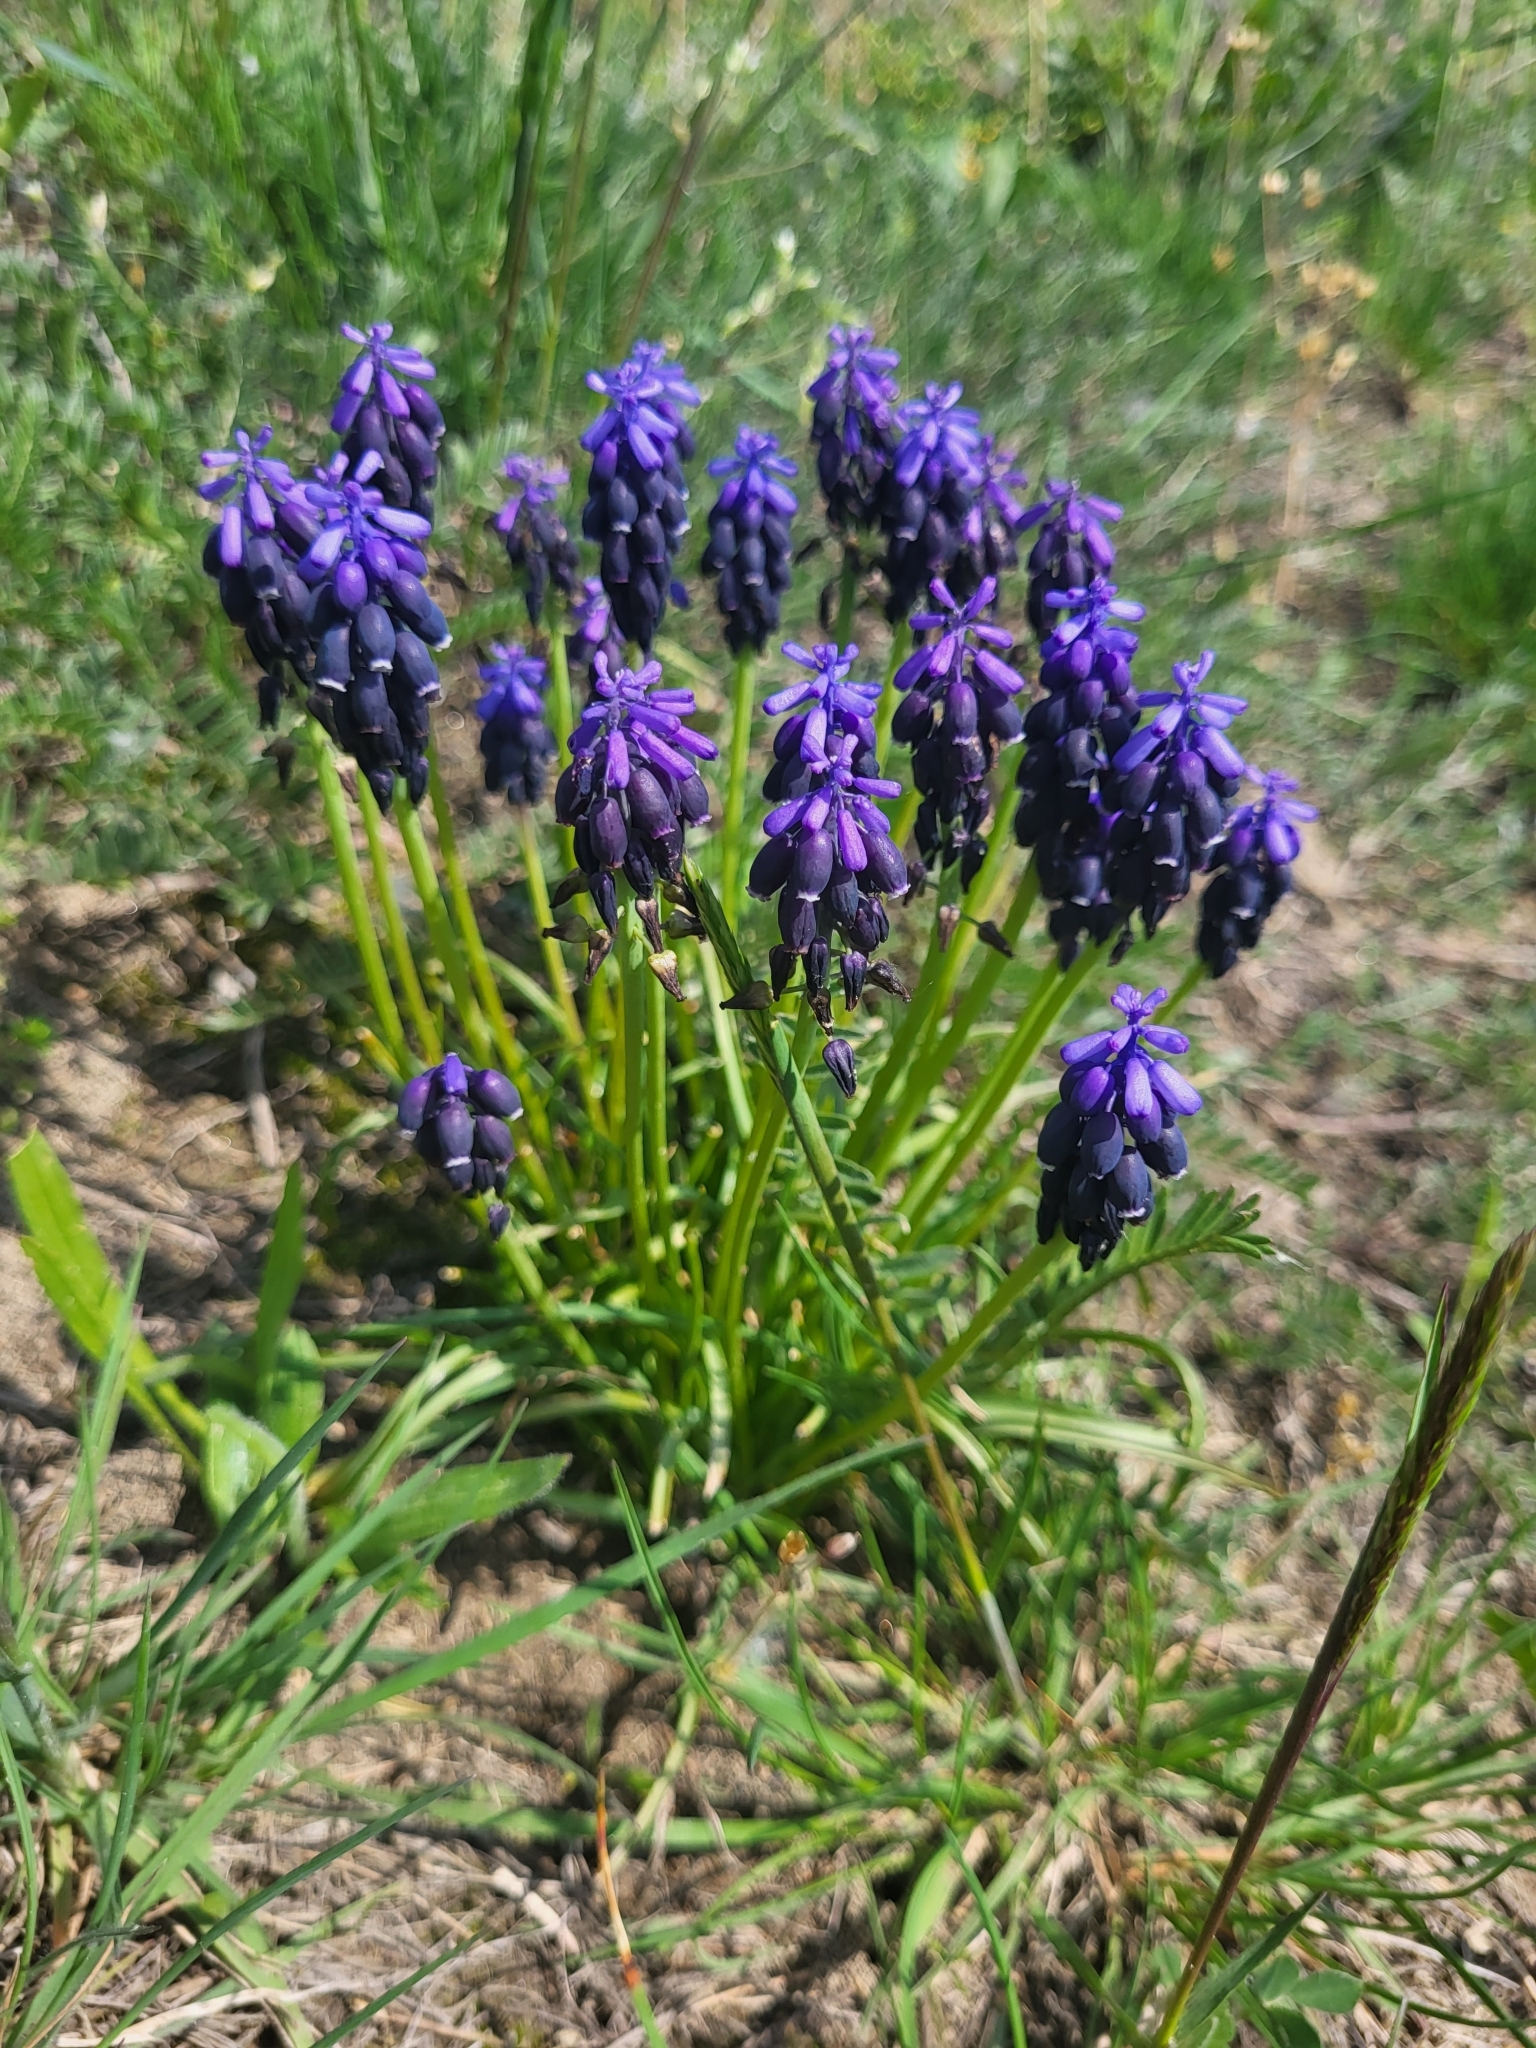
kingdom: Plantae
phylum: Tracheophyta
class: Liliopsida
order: Asparagales
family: Asparagaceae
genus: Muscari
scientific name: Muscari neglectum
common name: Grape-hyacinth
